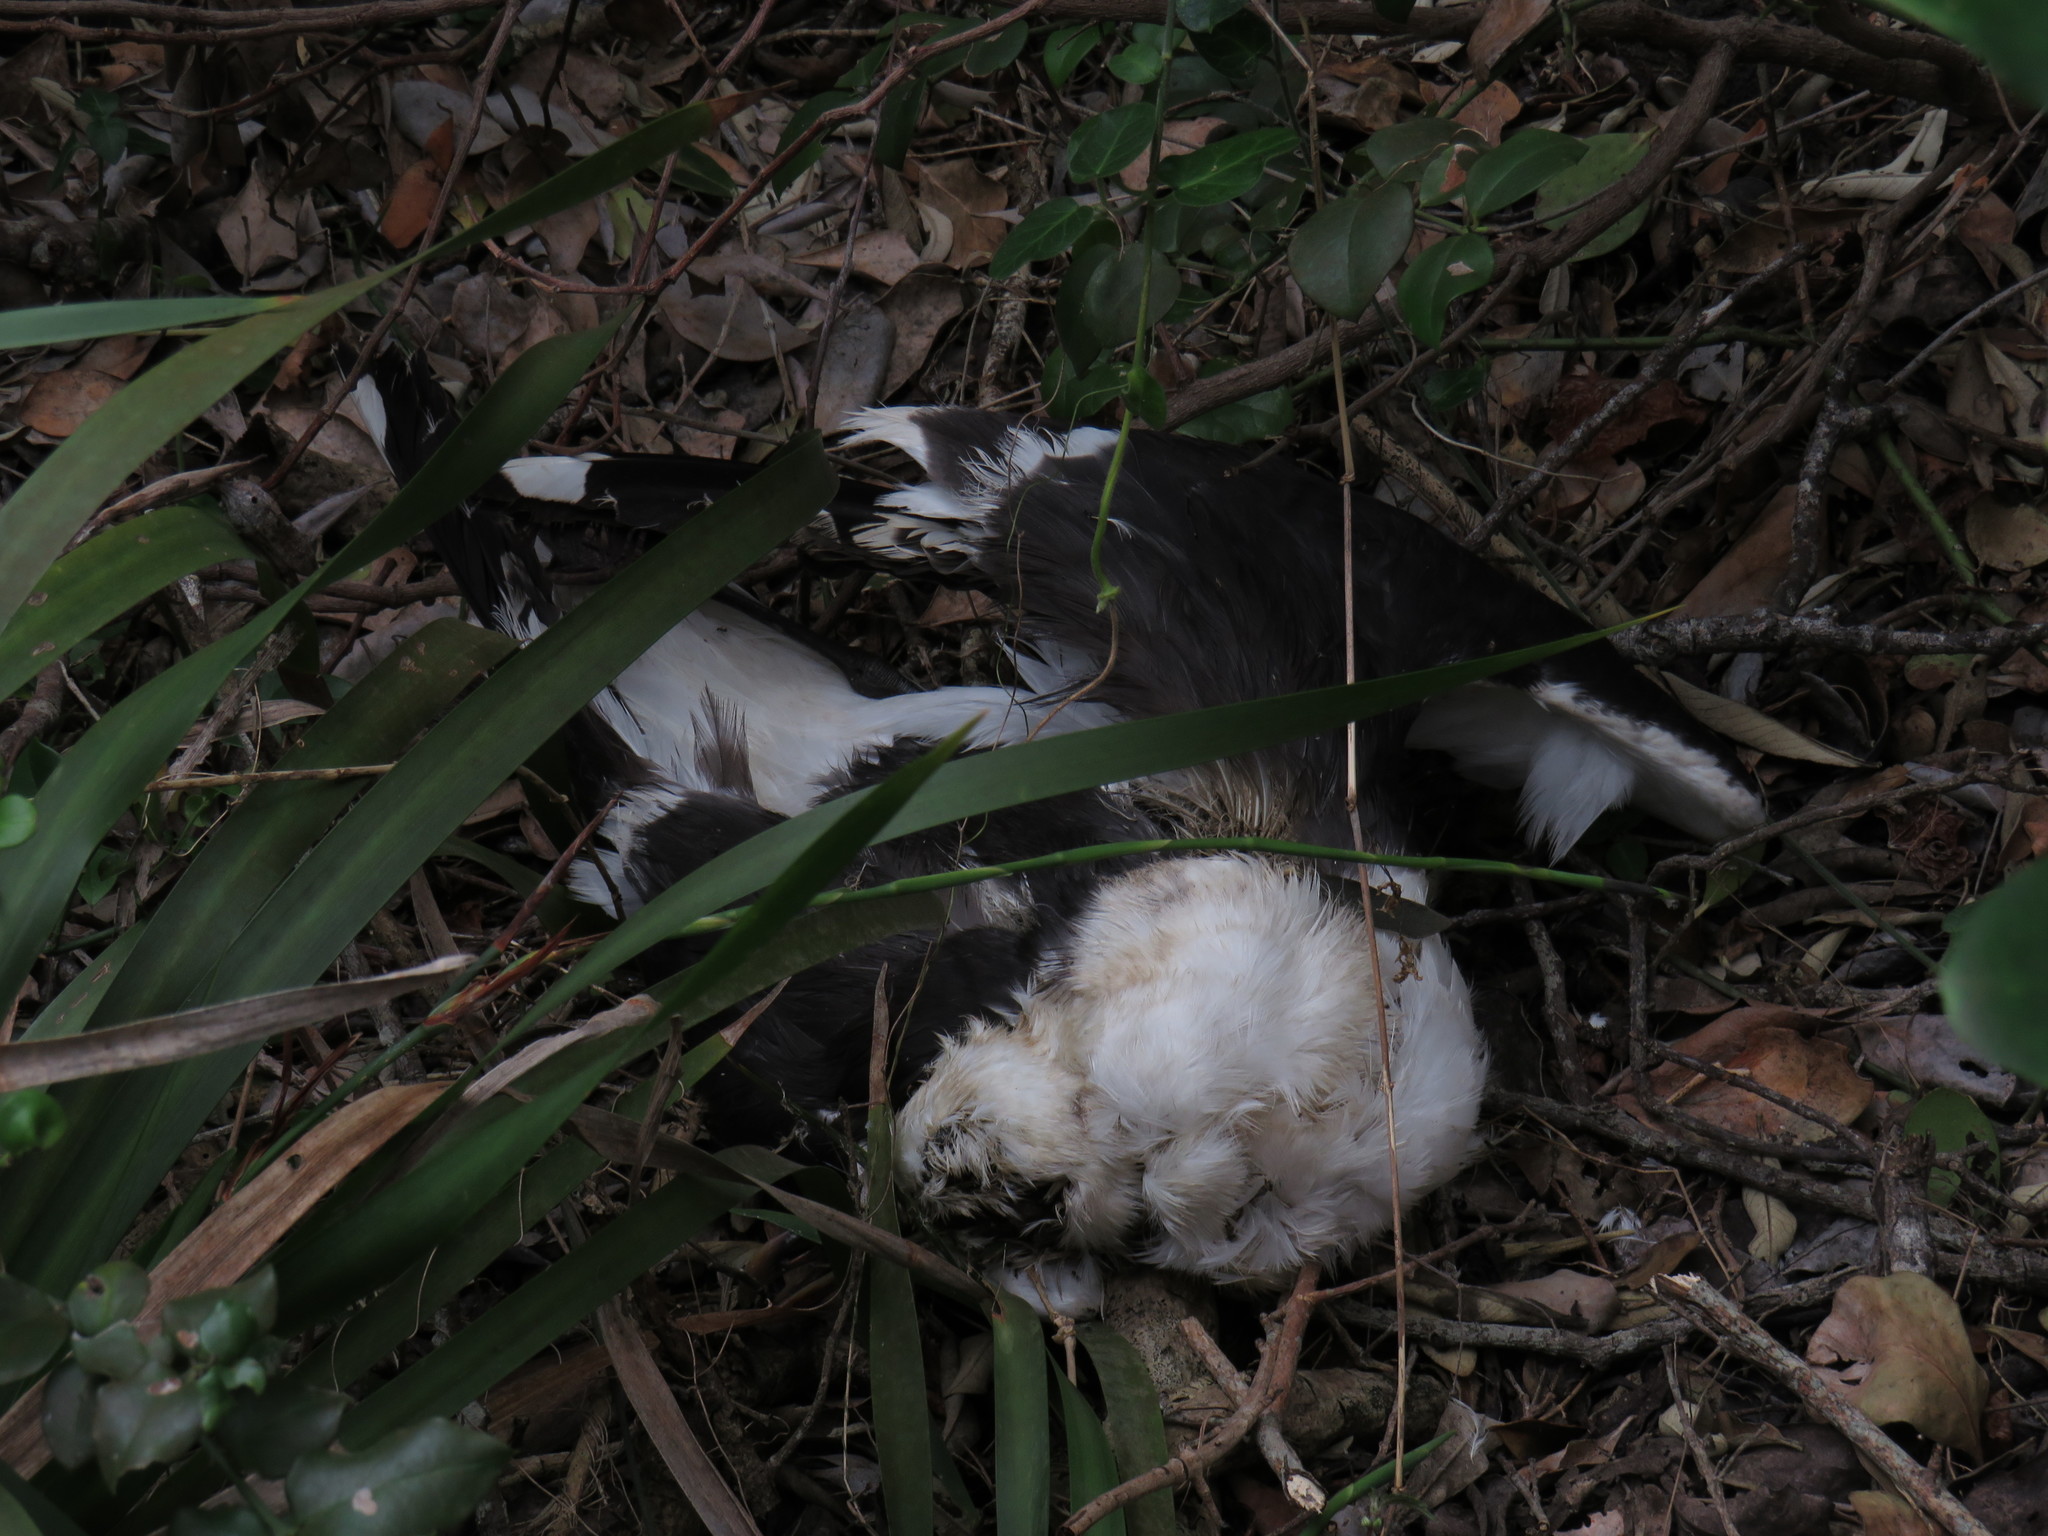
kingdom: Animalia
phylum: Chordata
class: Aves
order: Charadriiformes
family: Laridae
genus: Larus
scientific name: Larus dominicanus
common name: Kelp gull
